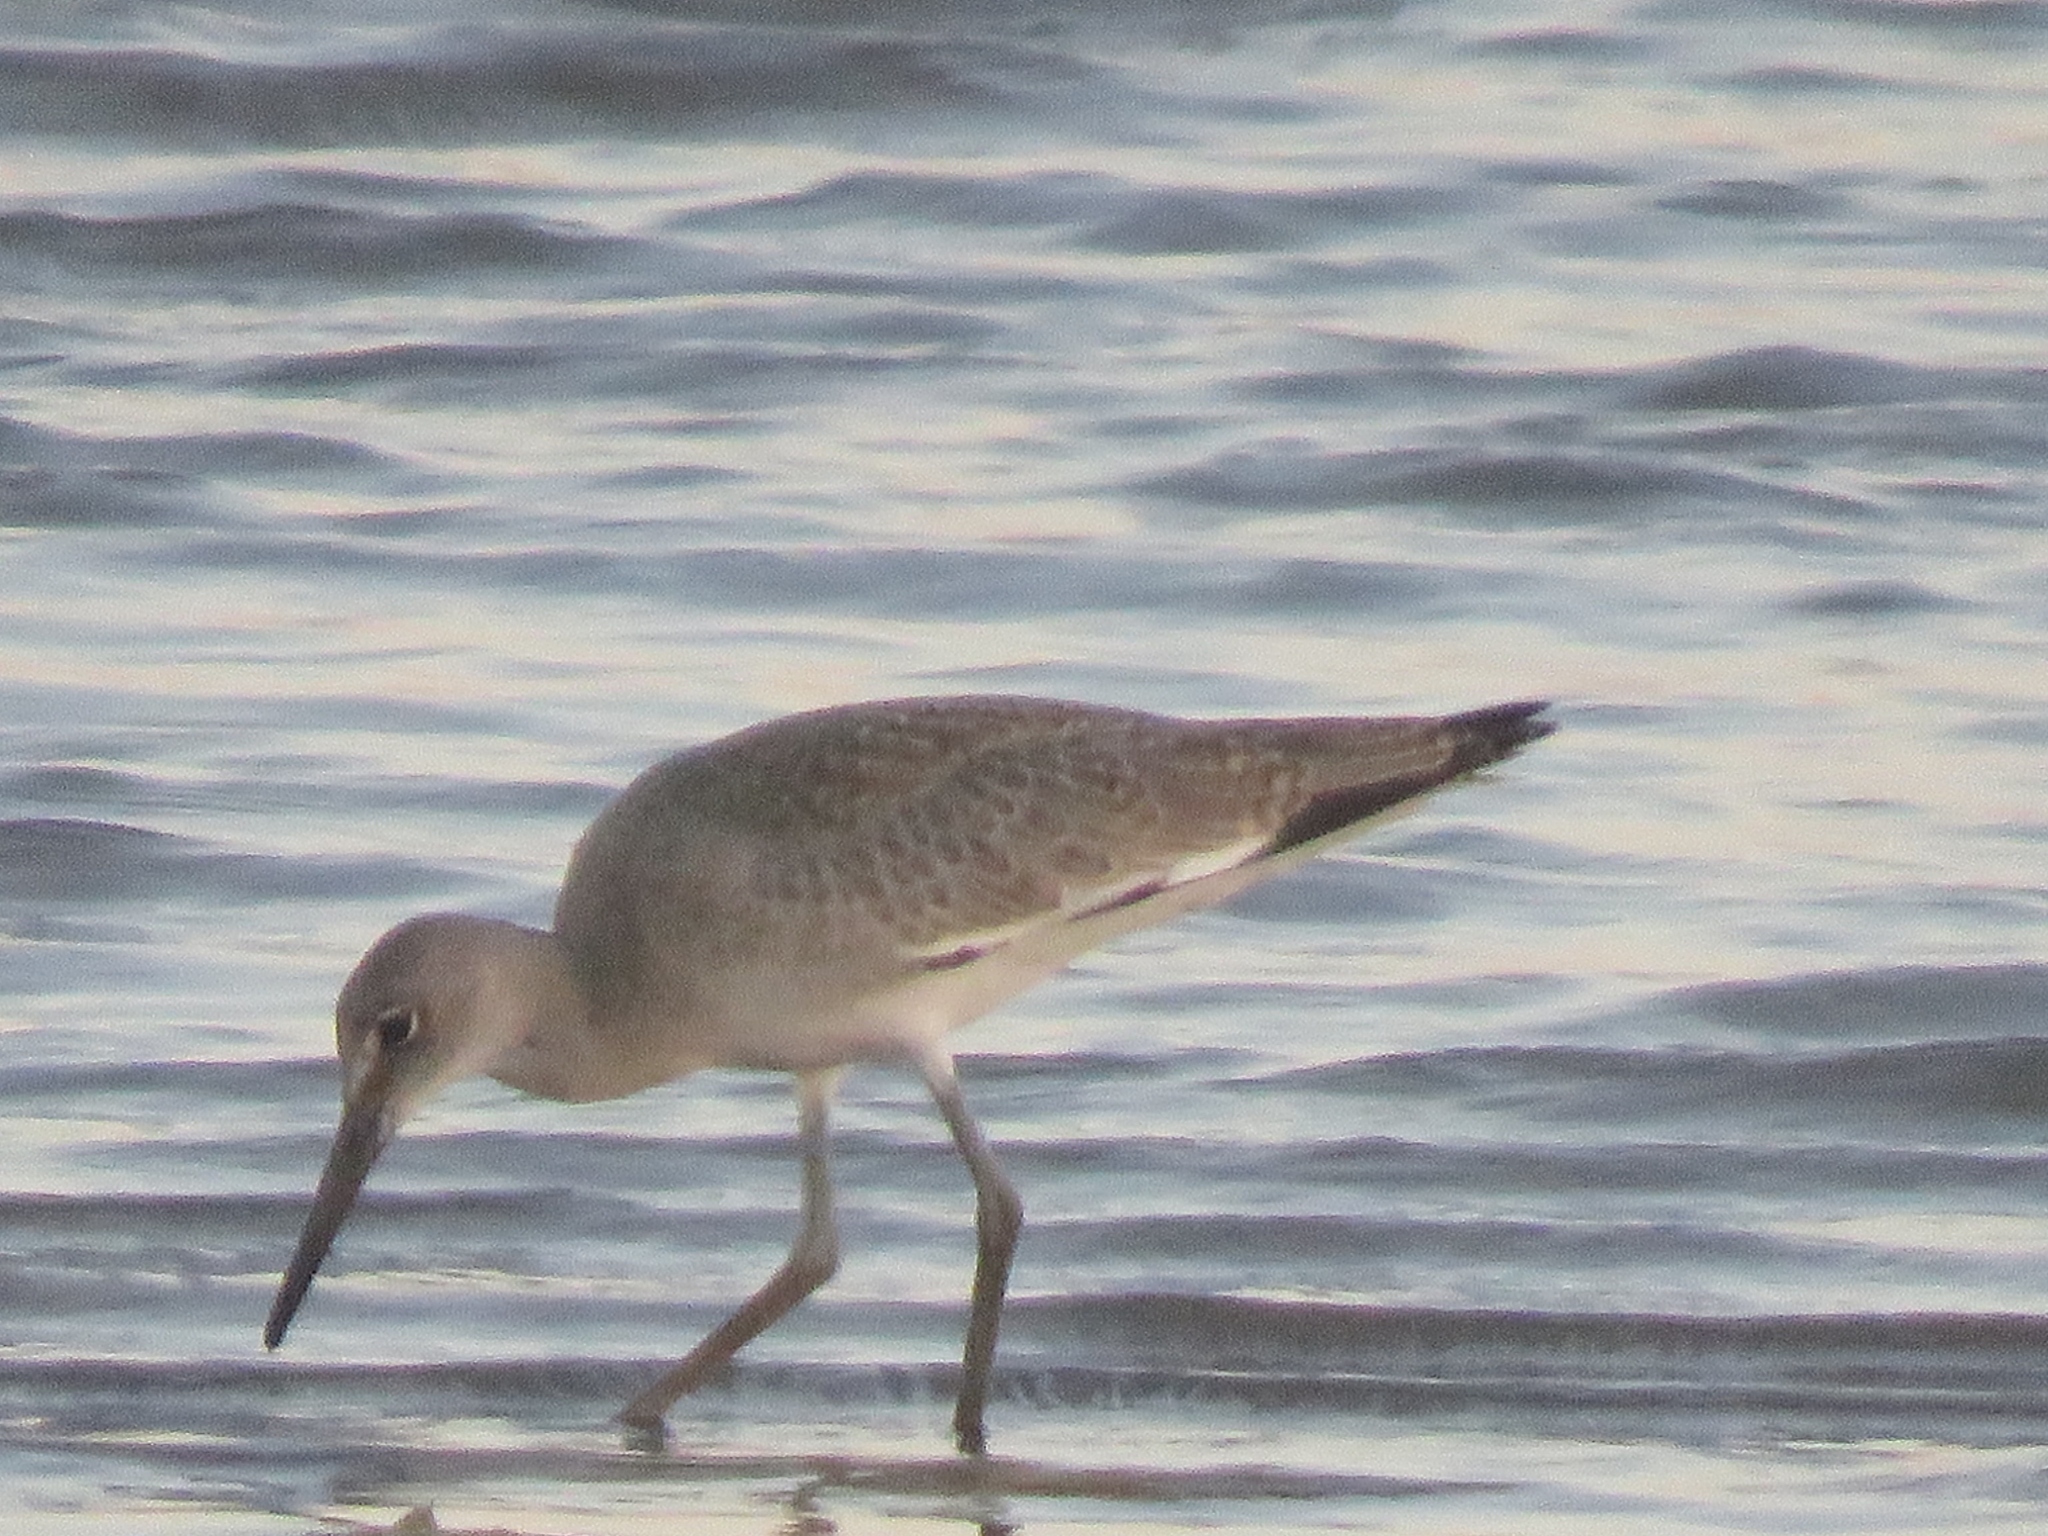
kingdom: Animalia
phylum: Chordata
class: Aves
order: Charadriiformes
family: Scolopacidae
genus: Tringa
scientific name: Tringa semipalmata
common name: Willet
